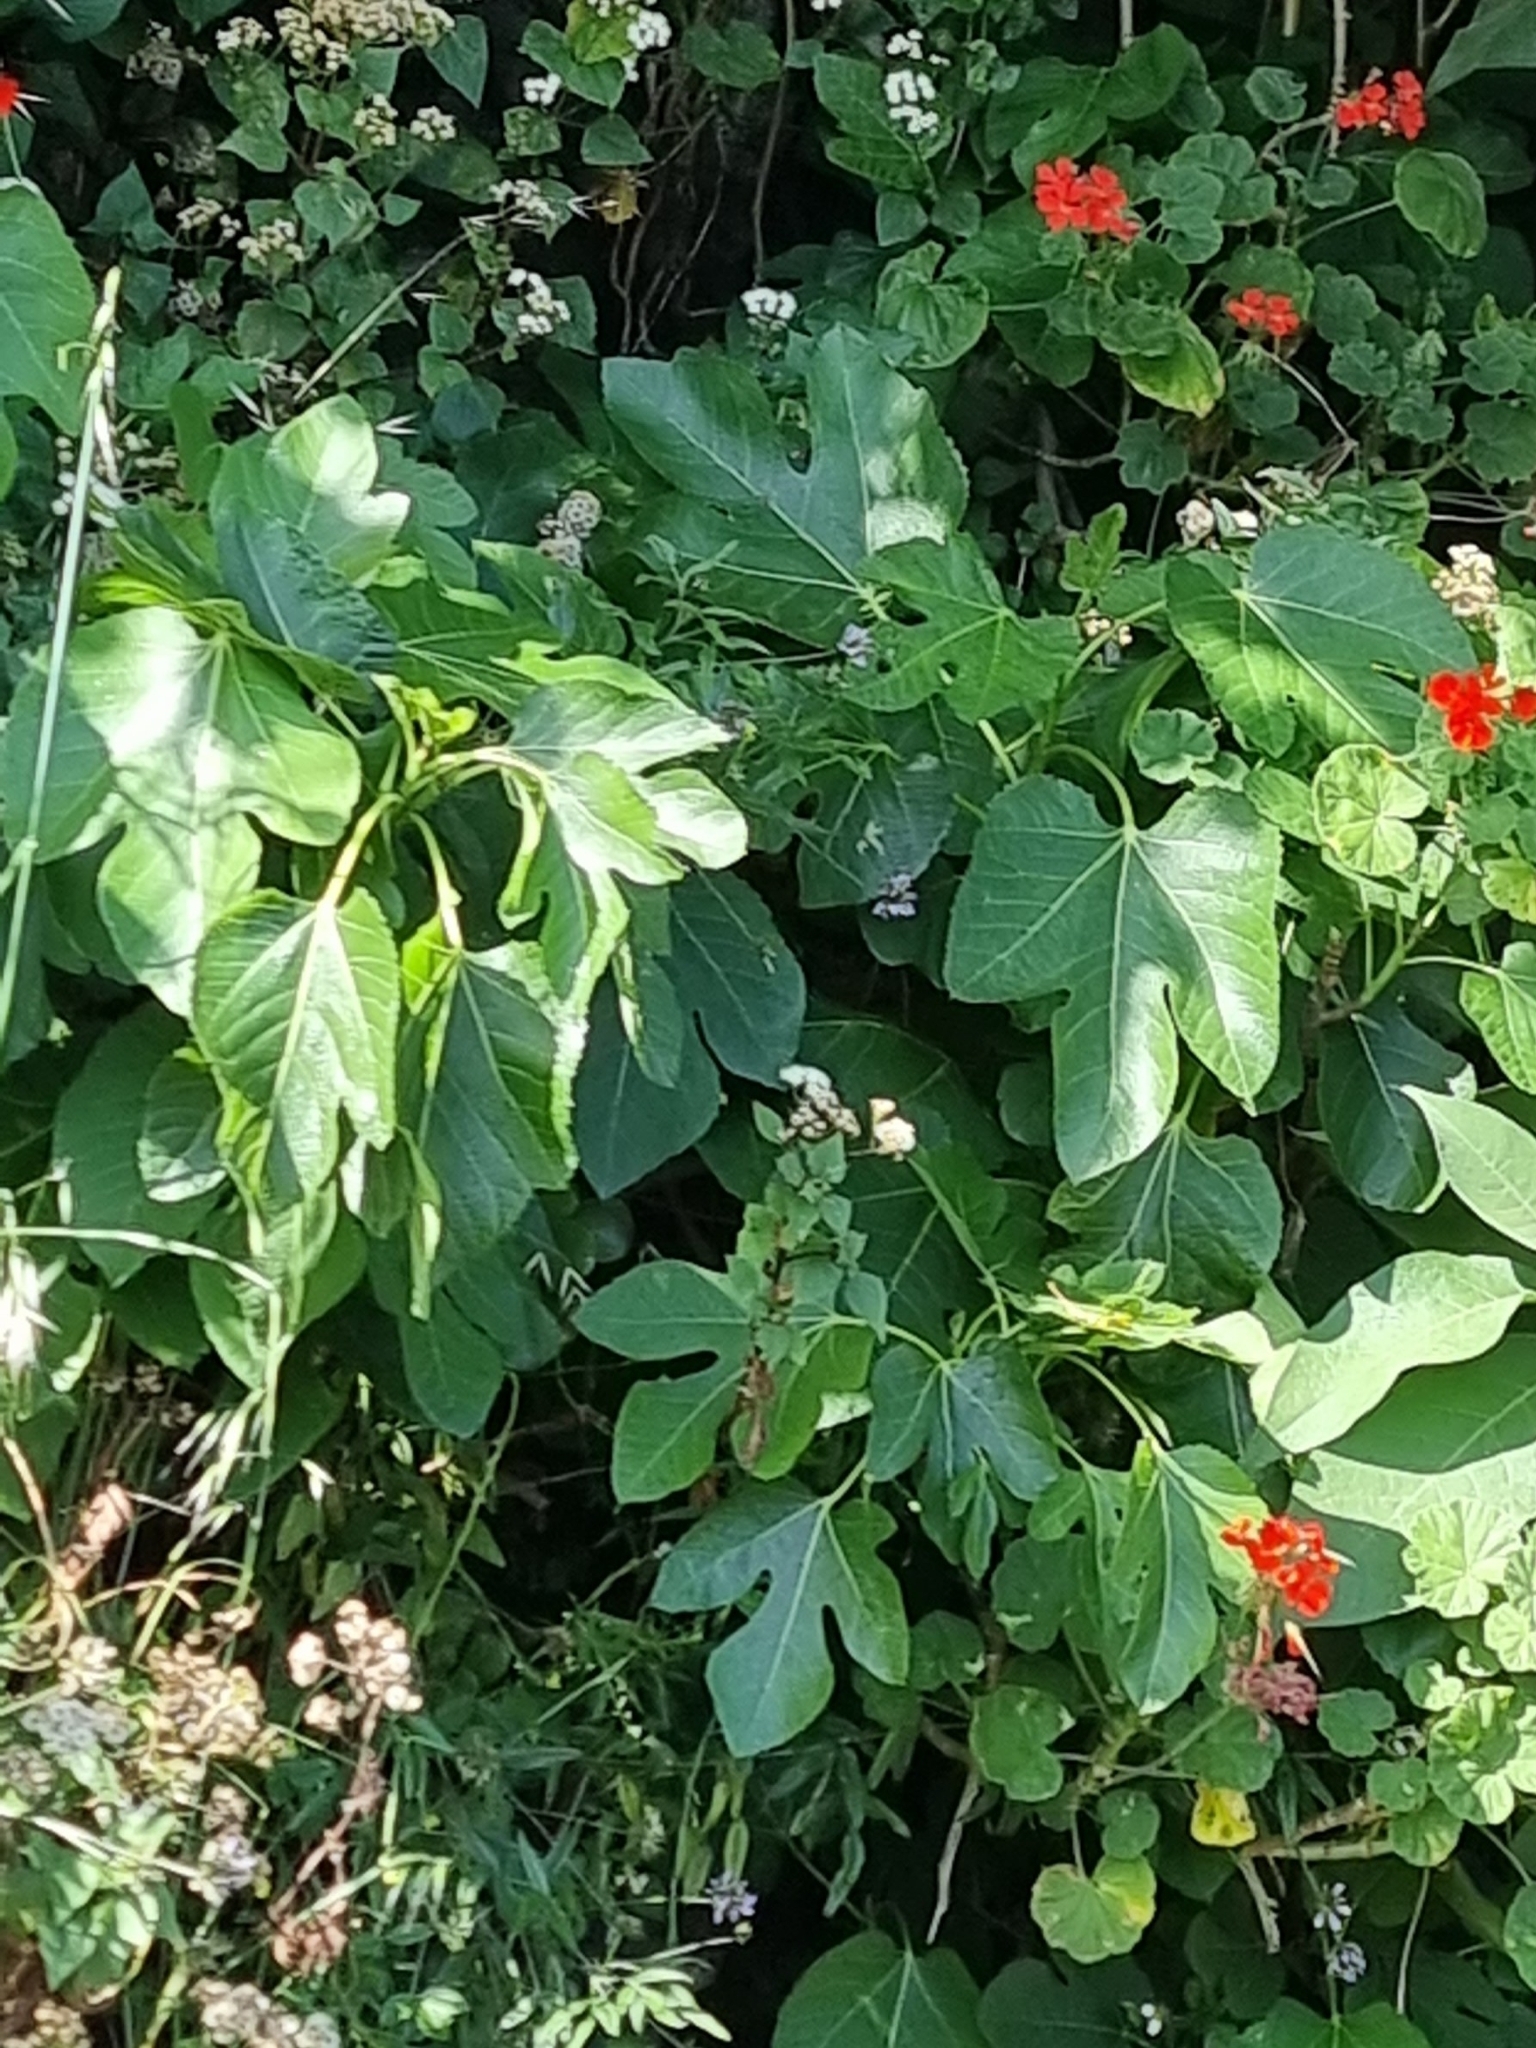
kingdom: Plantae
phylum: Tracheophyta
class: Magnoliopsida
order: Rosales
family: Moraceae
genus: Ficus
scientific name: Ficus carica
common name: Fig
